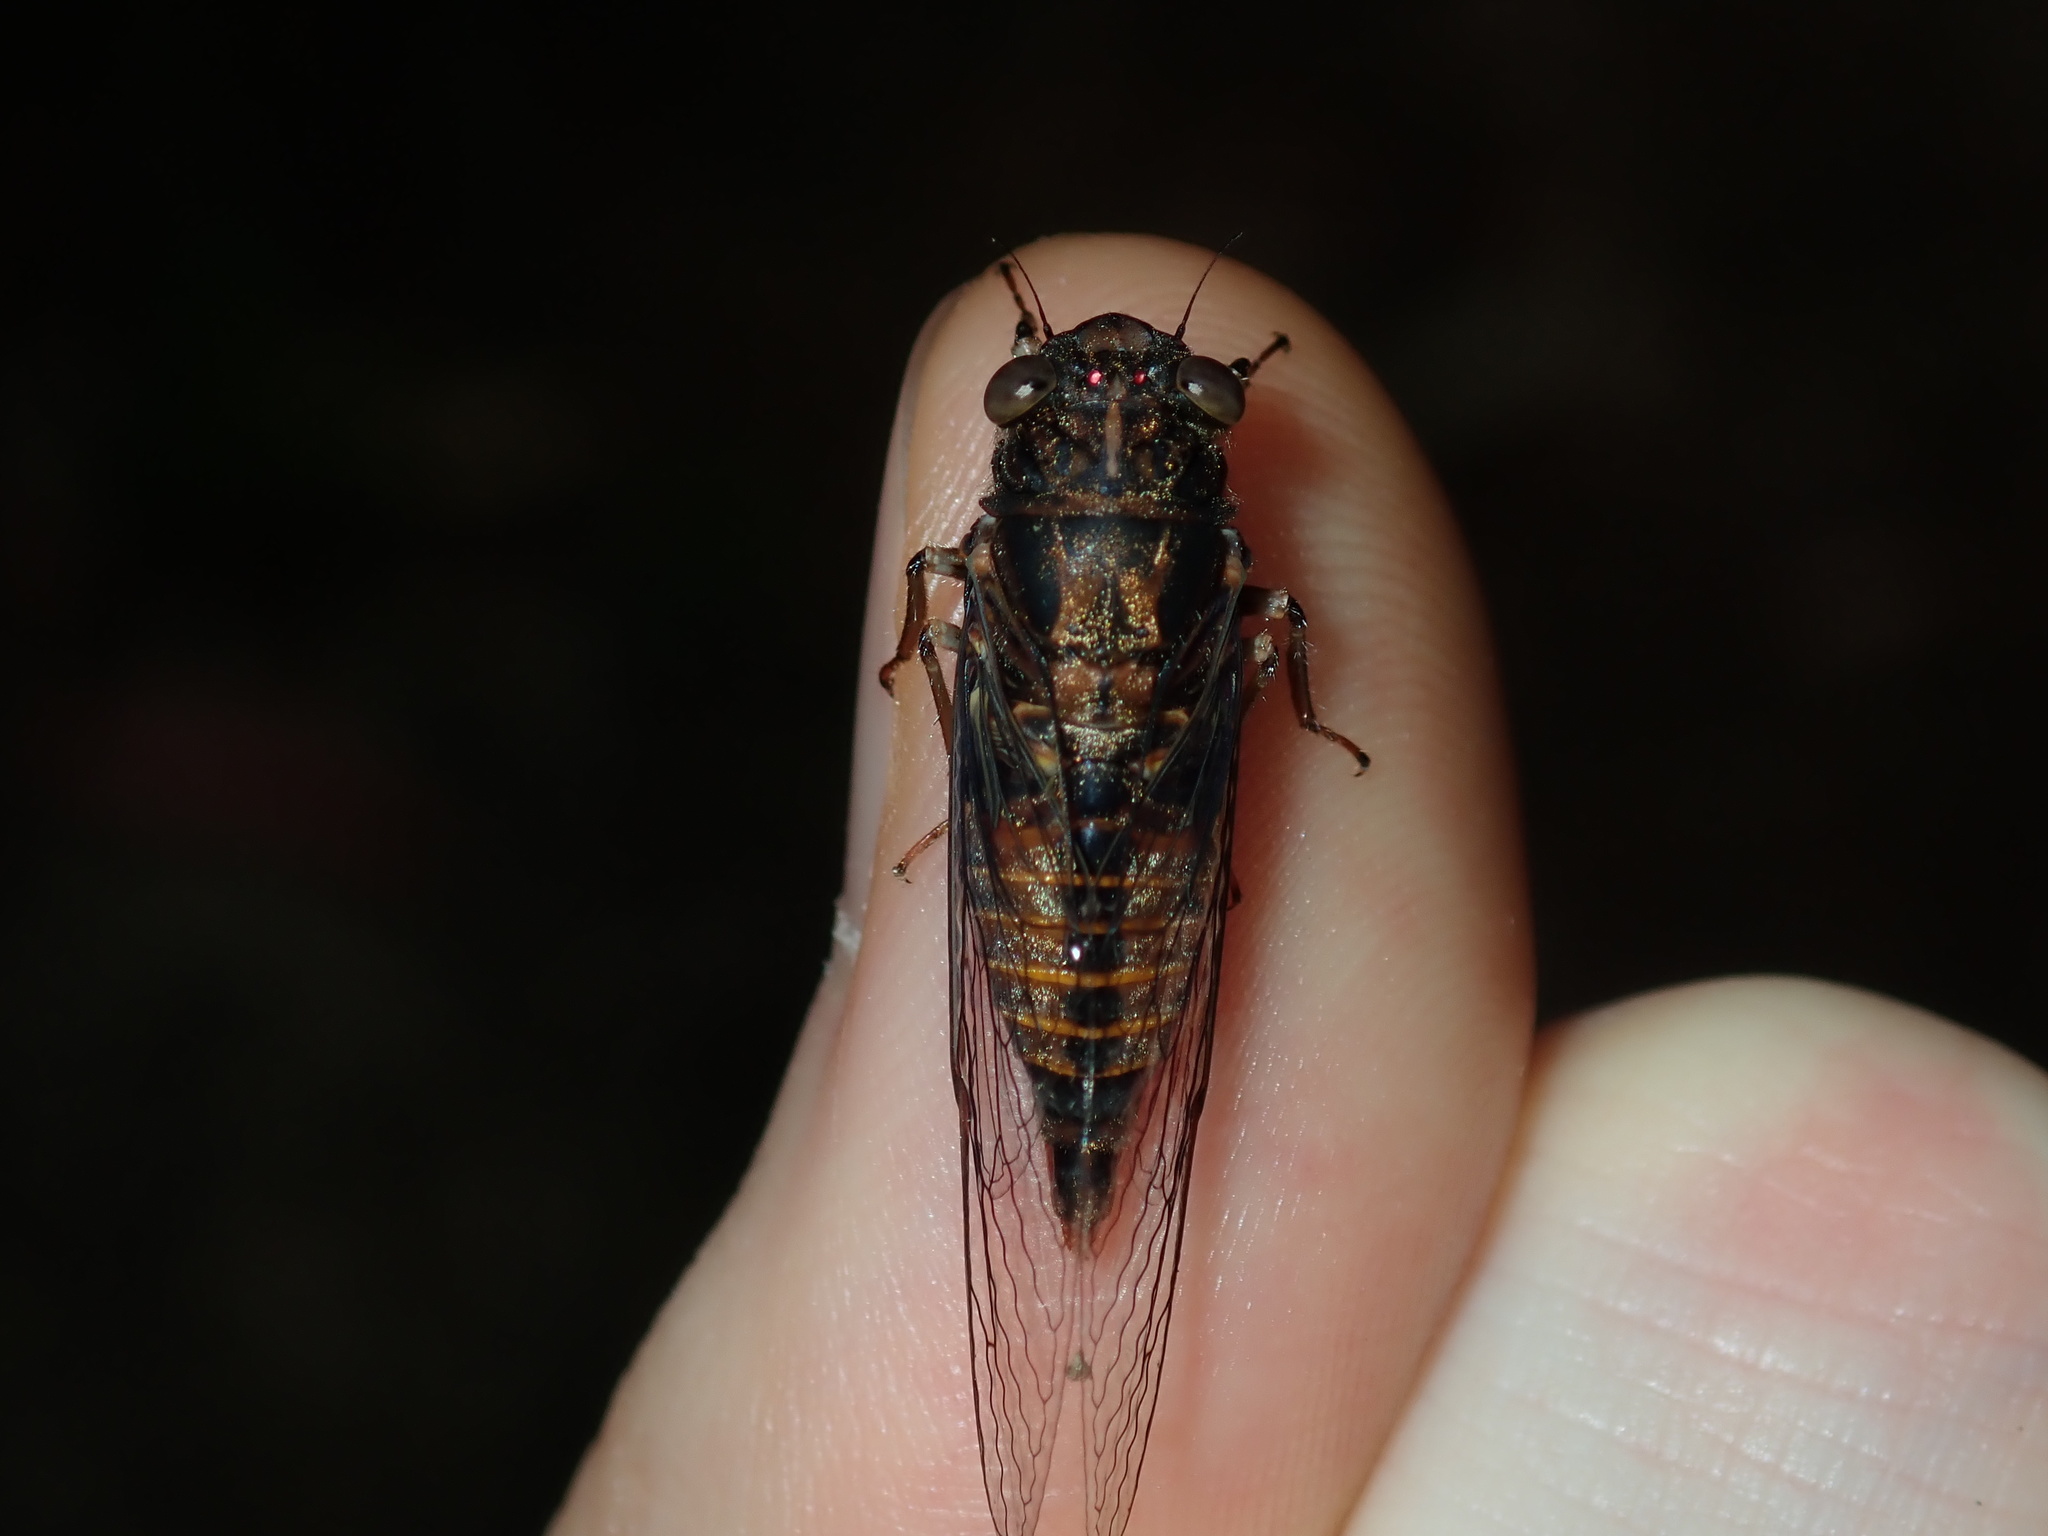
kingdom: Animalia
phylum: Arthropoda
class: Insecta
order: Hemiptera
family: Cicadidae
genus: Yoyetta
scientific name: Yoyetta humphreyae
